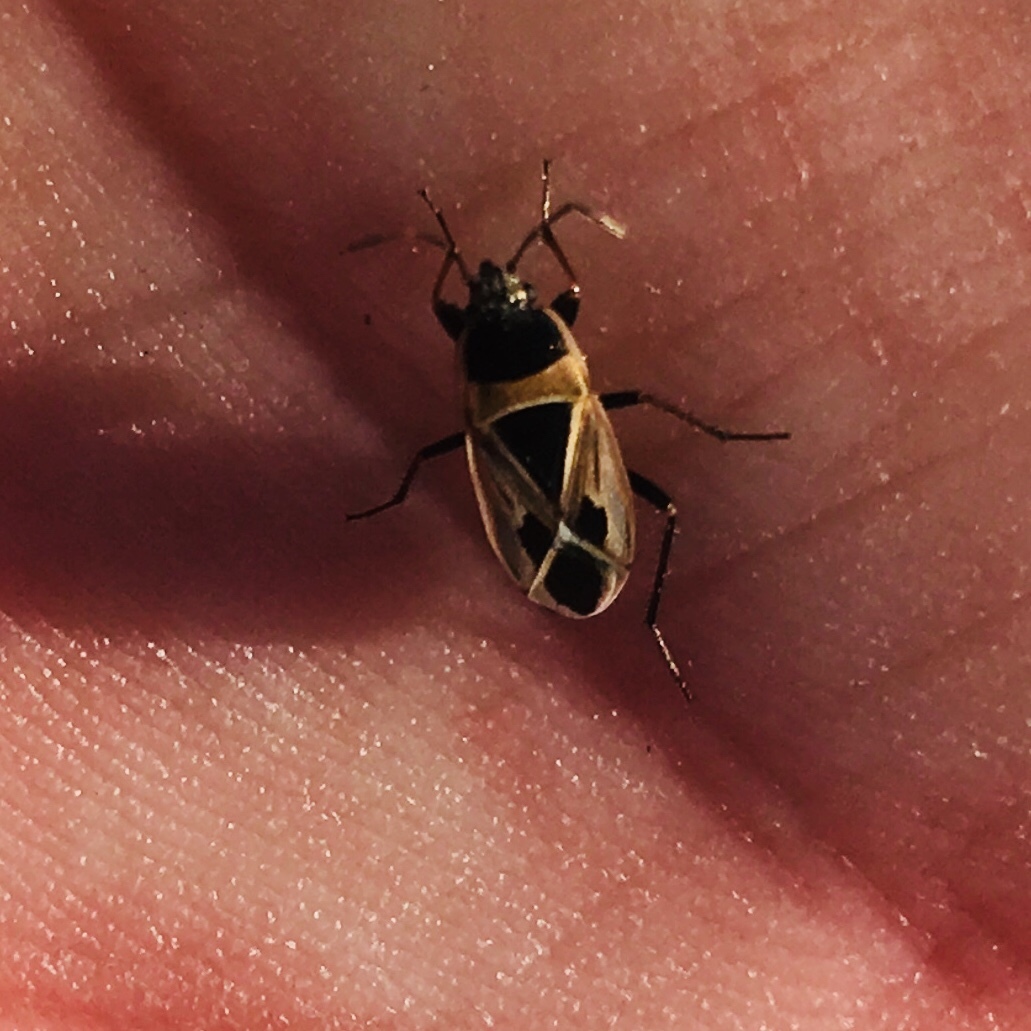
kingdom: Animalia
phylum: Arthropoda
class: Insecta
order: Hemiptera
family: Rhyparochromidae
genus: Xanthochilus
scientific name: Xanthochilus saturnius
